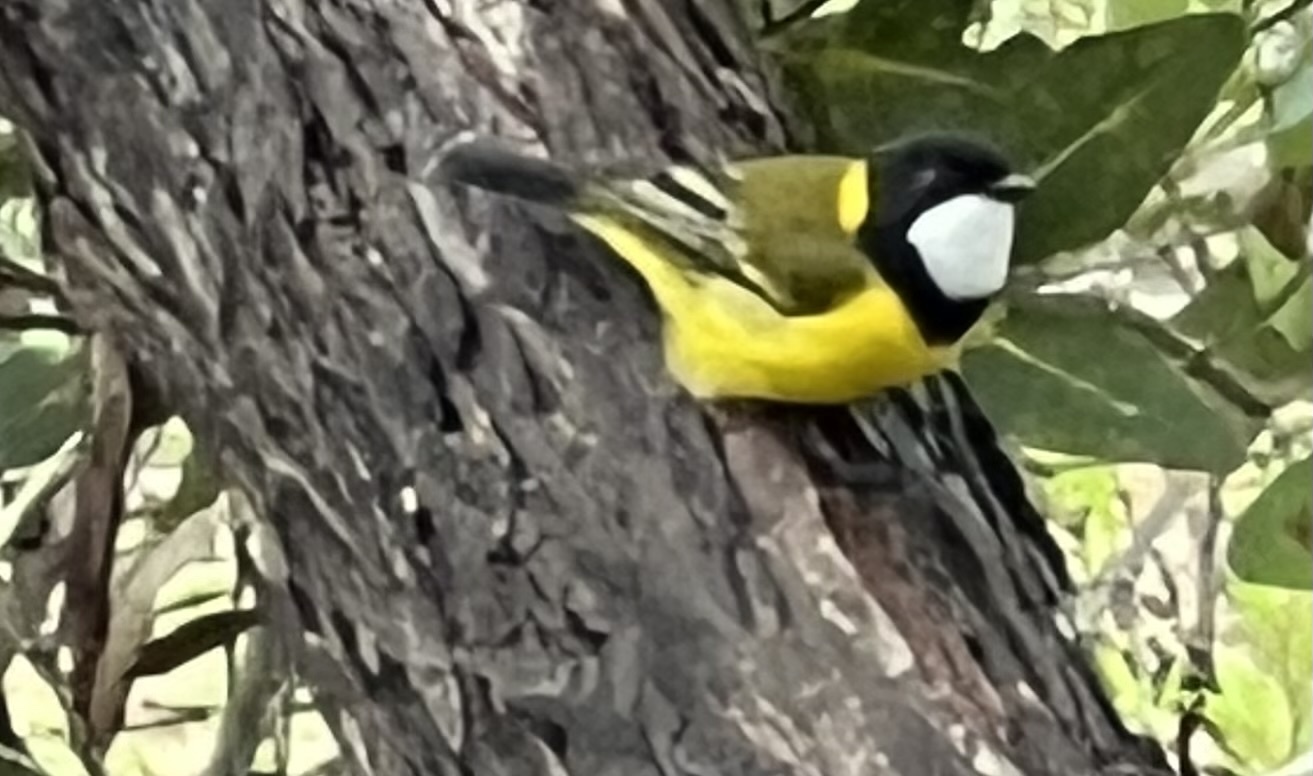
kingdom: Animalia
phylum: Chordata
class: Aves
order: Passeriformes
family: Pachycephalidae
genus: Pachycephala
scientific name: Pachycephala pectoralis
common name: Australian golden whistler
